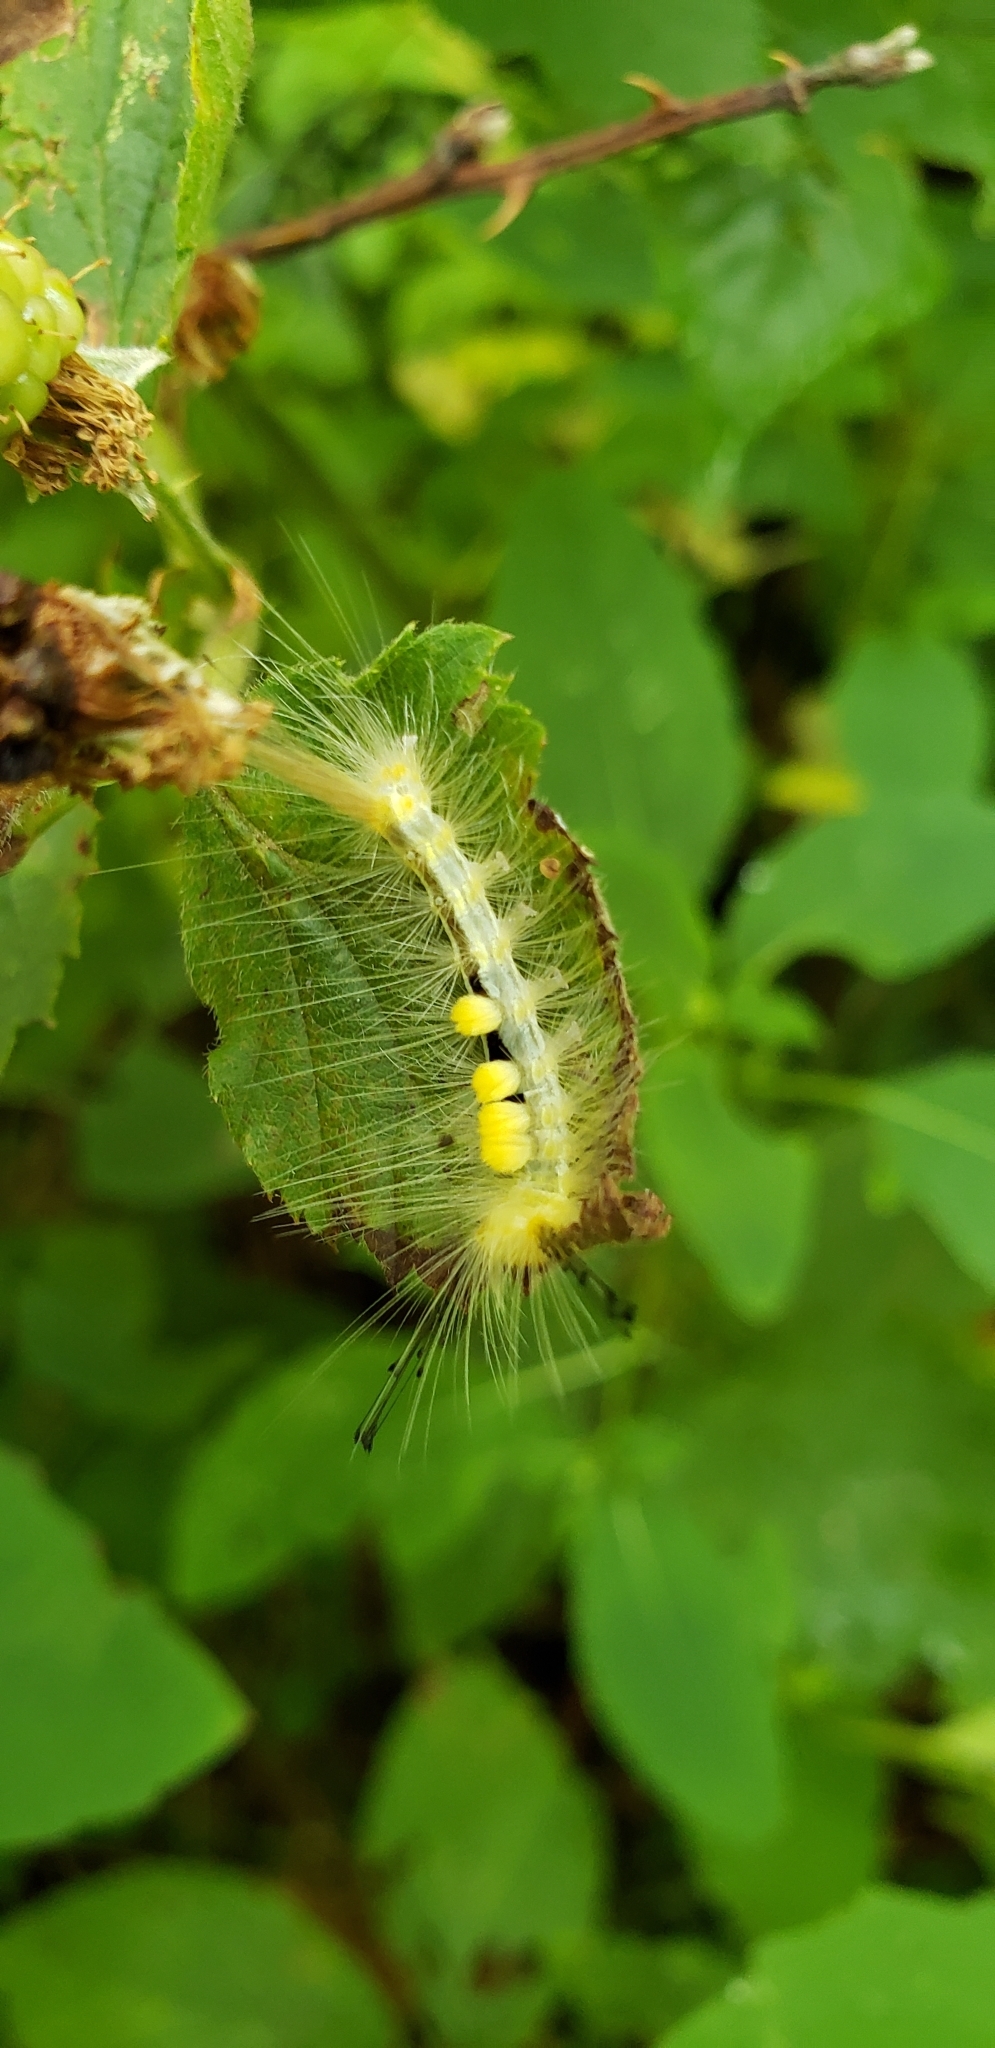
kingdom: Animalia
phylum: Arthropoda
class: Insecta
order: Lepidoptera
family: Erebidae
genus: Orgyia
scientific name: Orgyia definita
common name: Definite tussock moth
